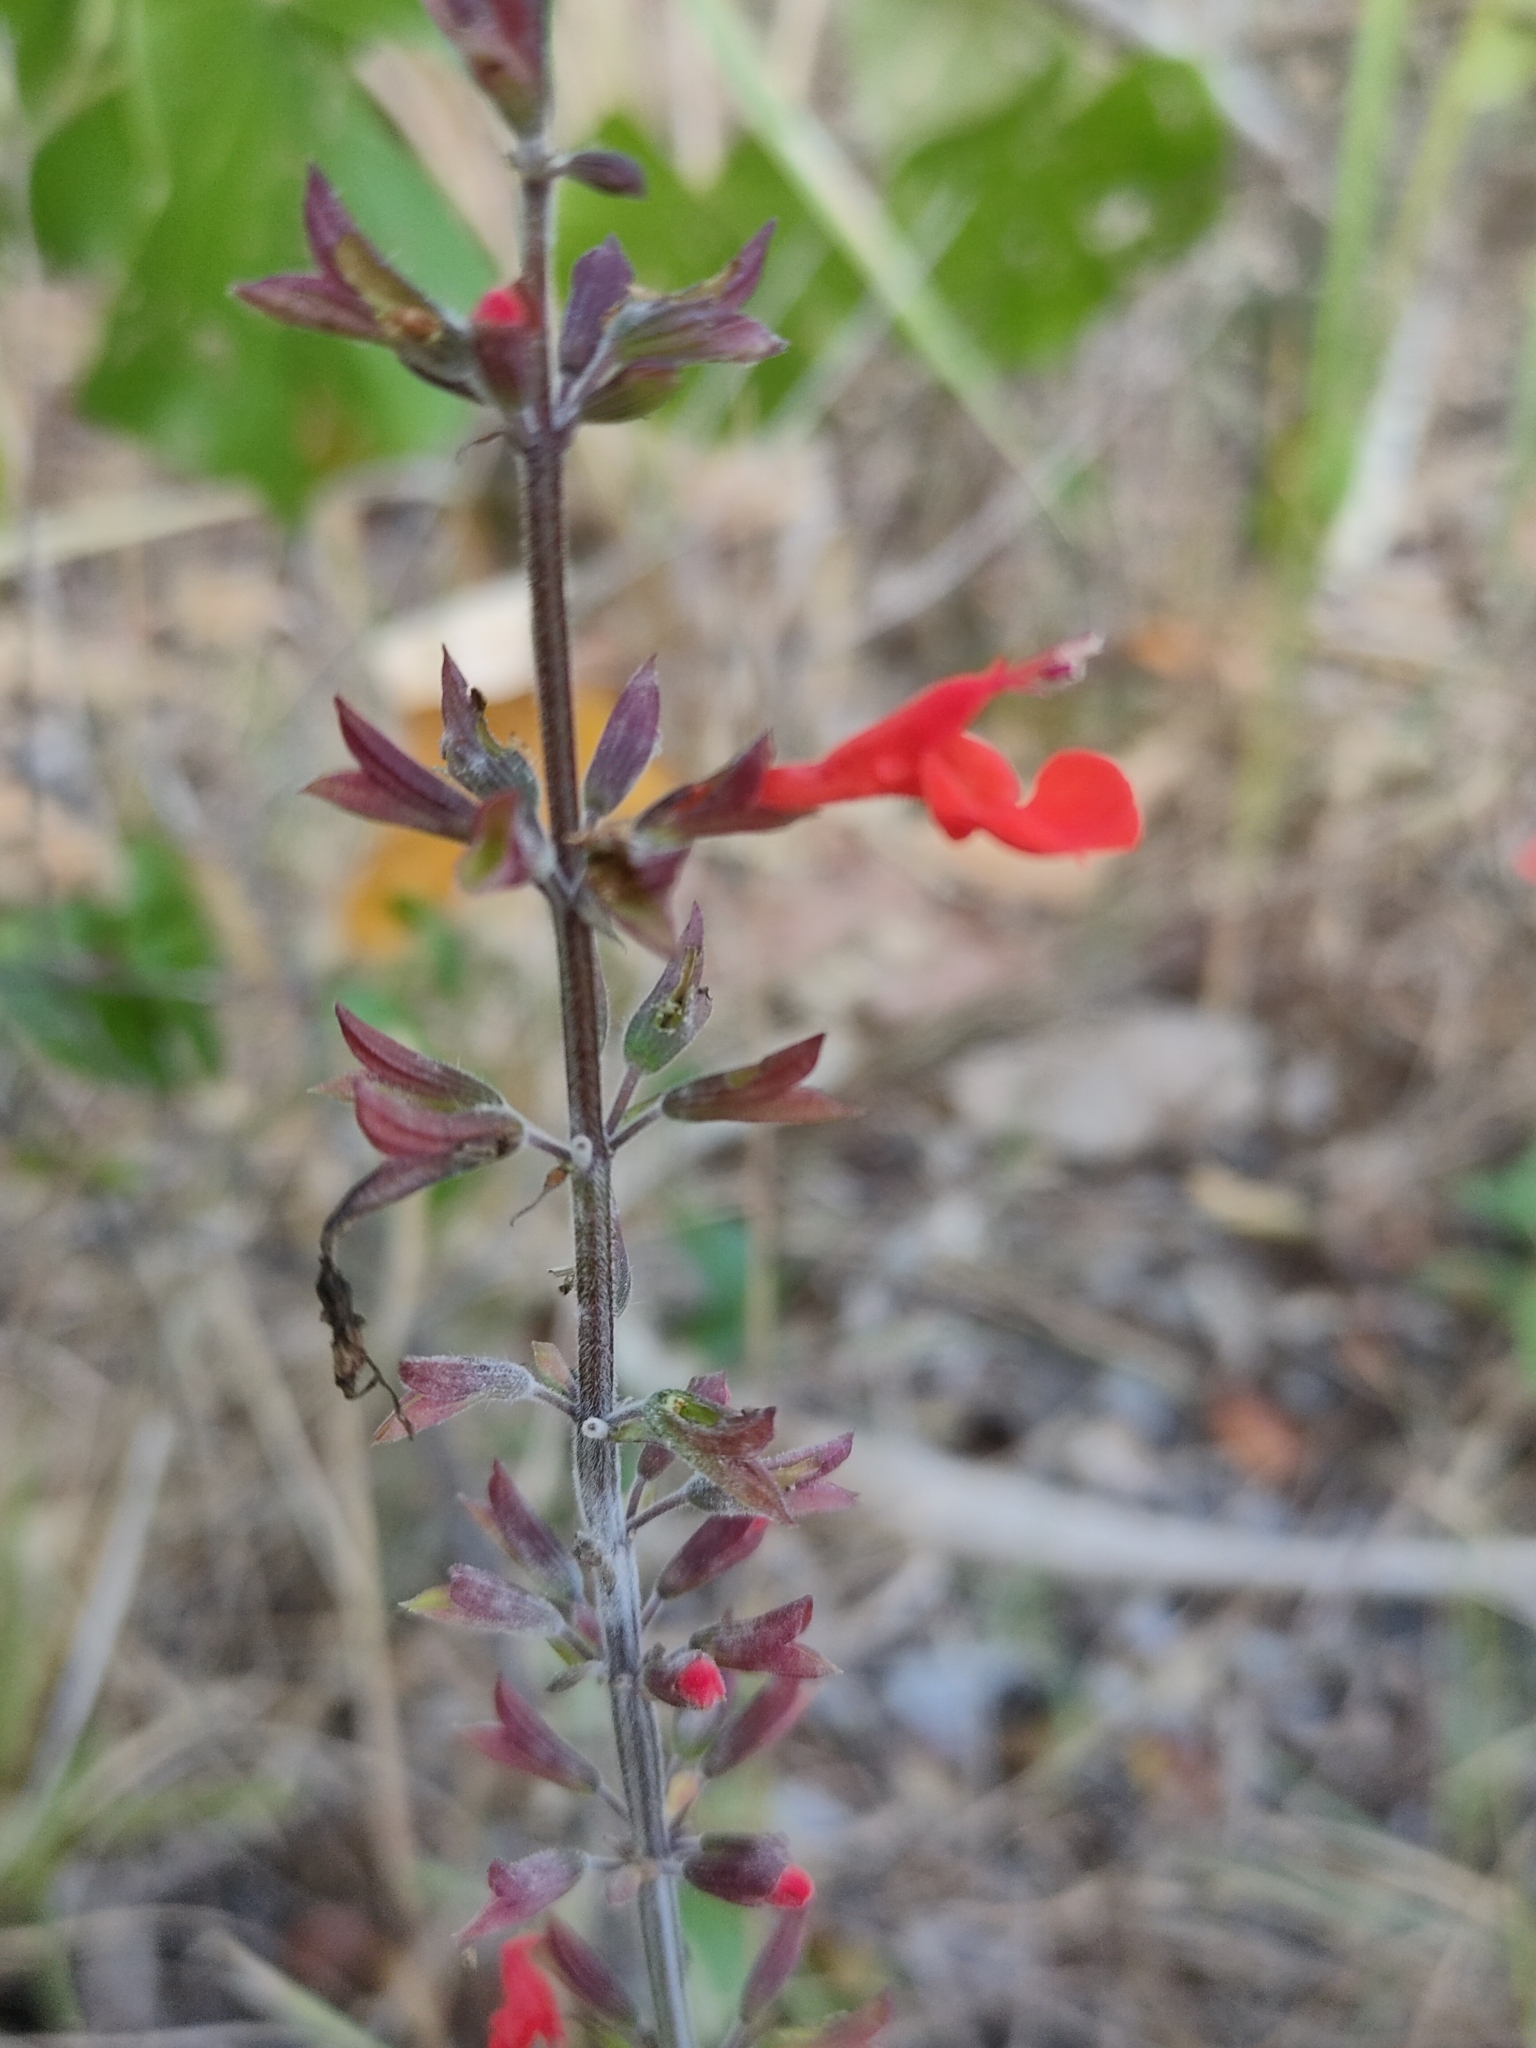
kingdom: Plantae
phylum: Tracheophyta
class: Magnoliopsida
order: Lamiales
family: Lamiaceae
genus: Salvia
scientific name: Salvia coccinea
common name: Blood sage
